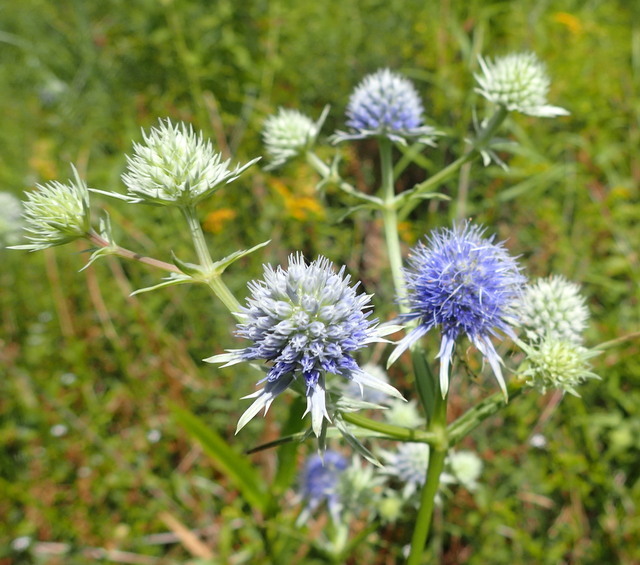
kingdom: Plantae
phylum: Tracheophyta
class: Magnoliopsida
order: Apiales
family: Apiaceae
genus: Eryngium
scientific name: Eryngium aquaticum
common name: Water eryngo
